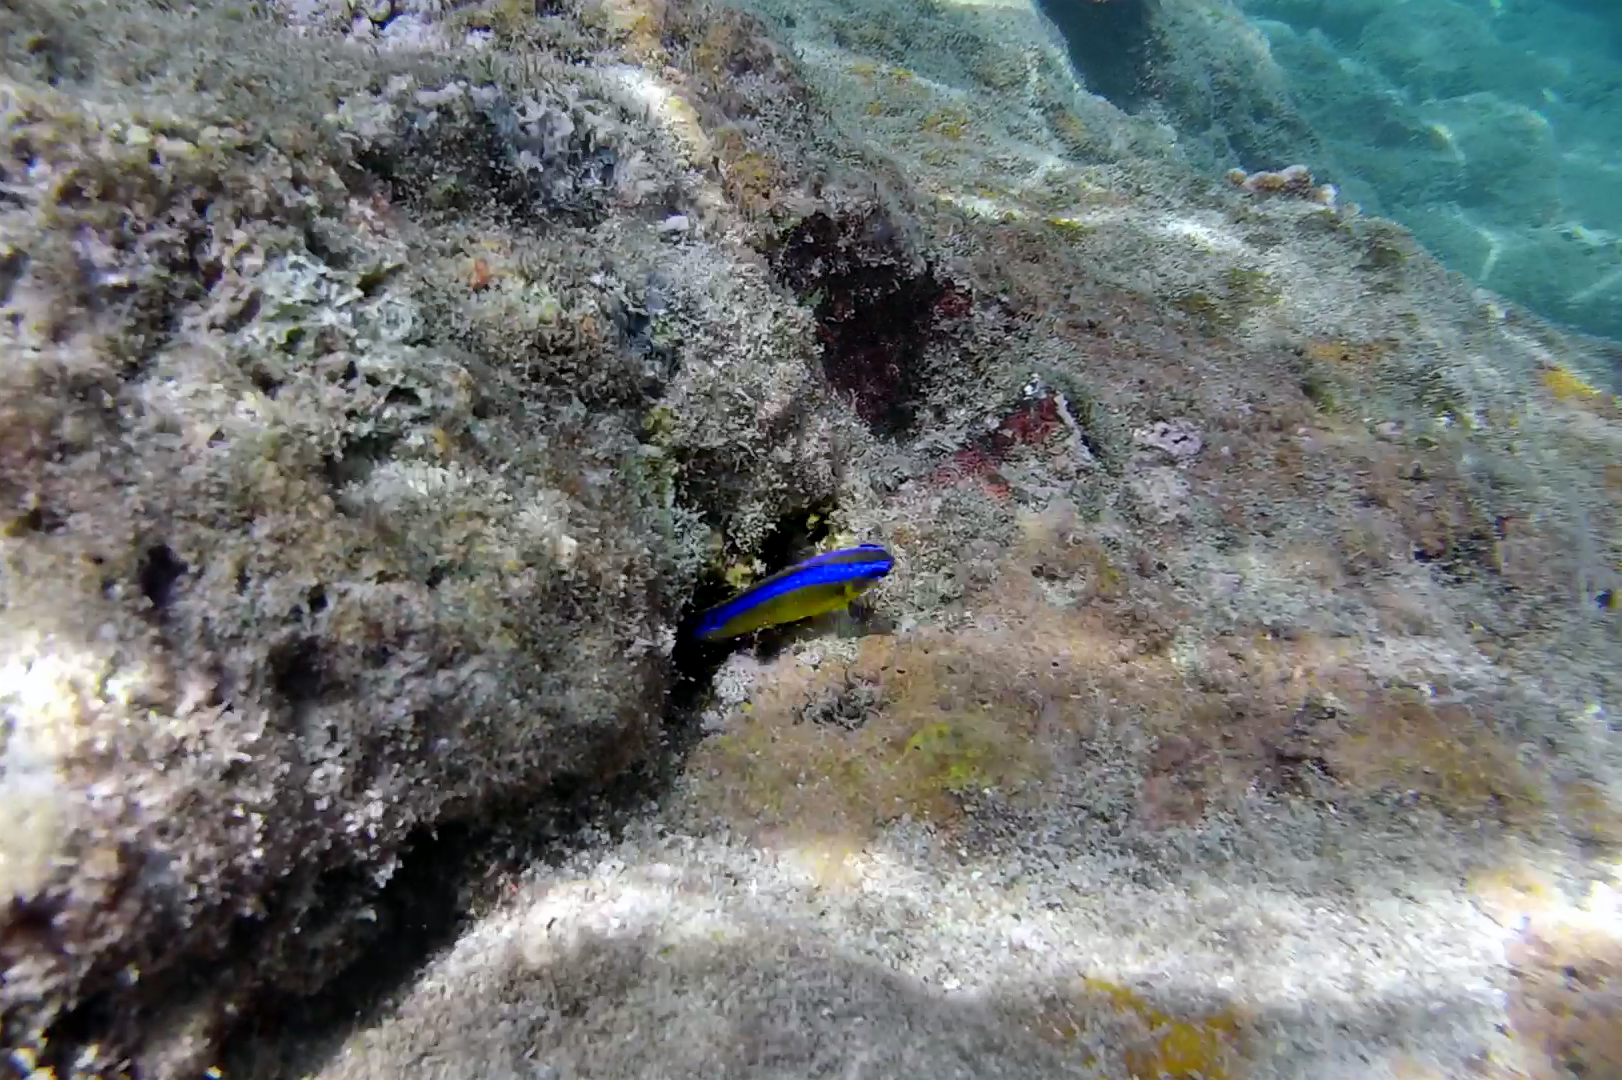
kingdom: Animalia
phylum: Chordata
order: Perciformes
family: Pomacentridae
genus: Chrysiptera
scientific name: Chrysiptera unimaculata
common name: Onespot demoiselle
